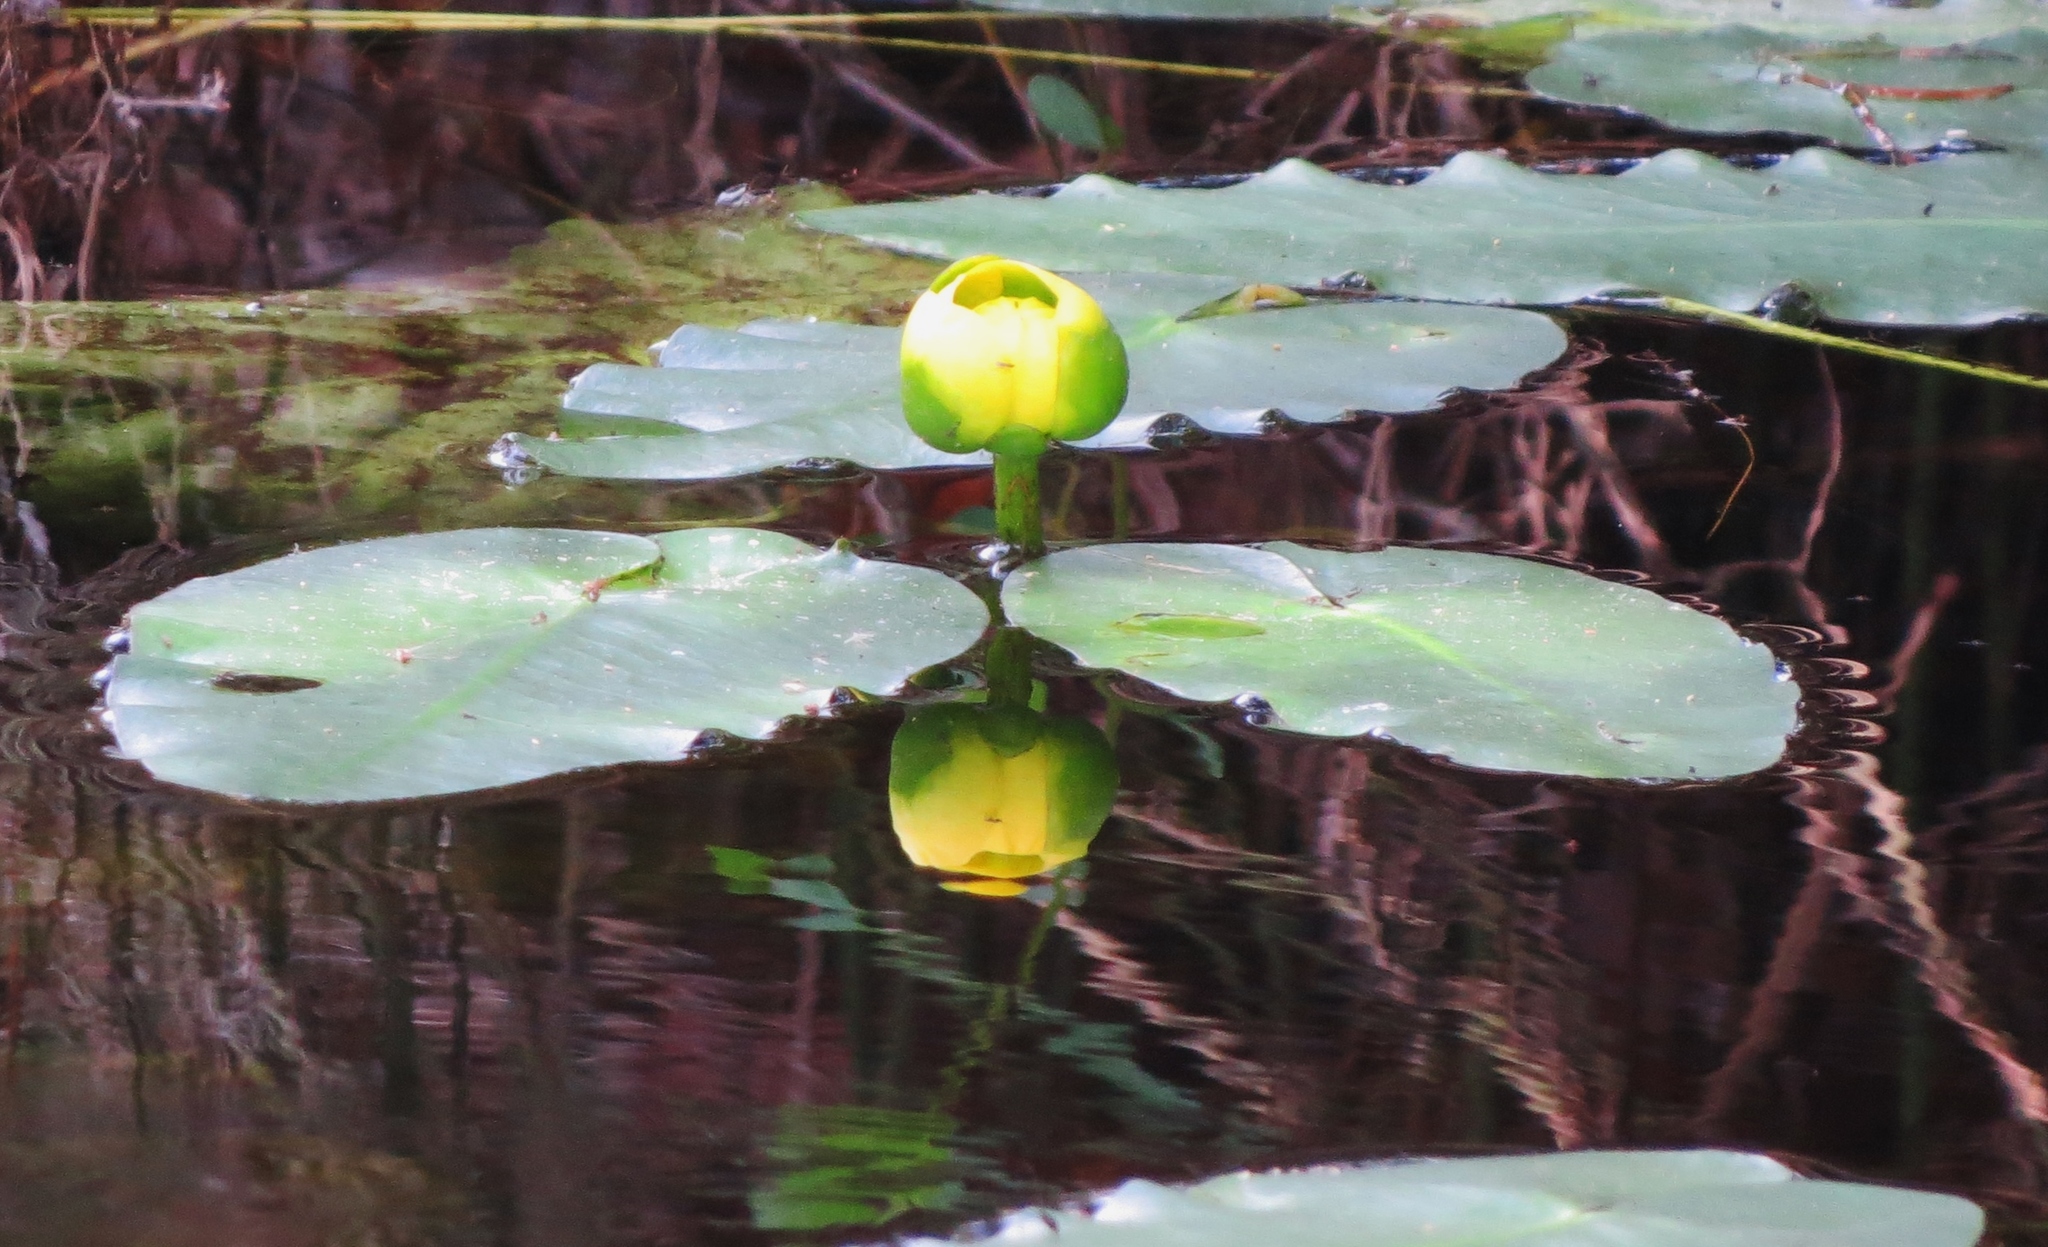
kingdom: Plantae
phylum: Tracheophyta
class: Magnoliopsida
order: Nymphaeales
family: Nymphaeaceae
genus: Nuphar
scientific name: Nuphar advena
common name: Spatter-dock
